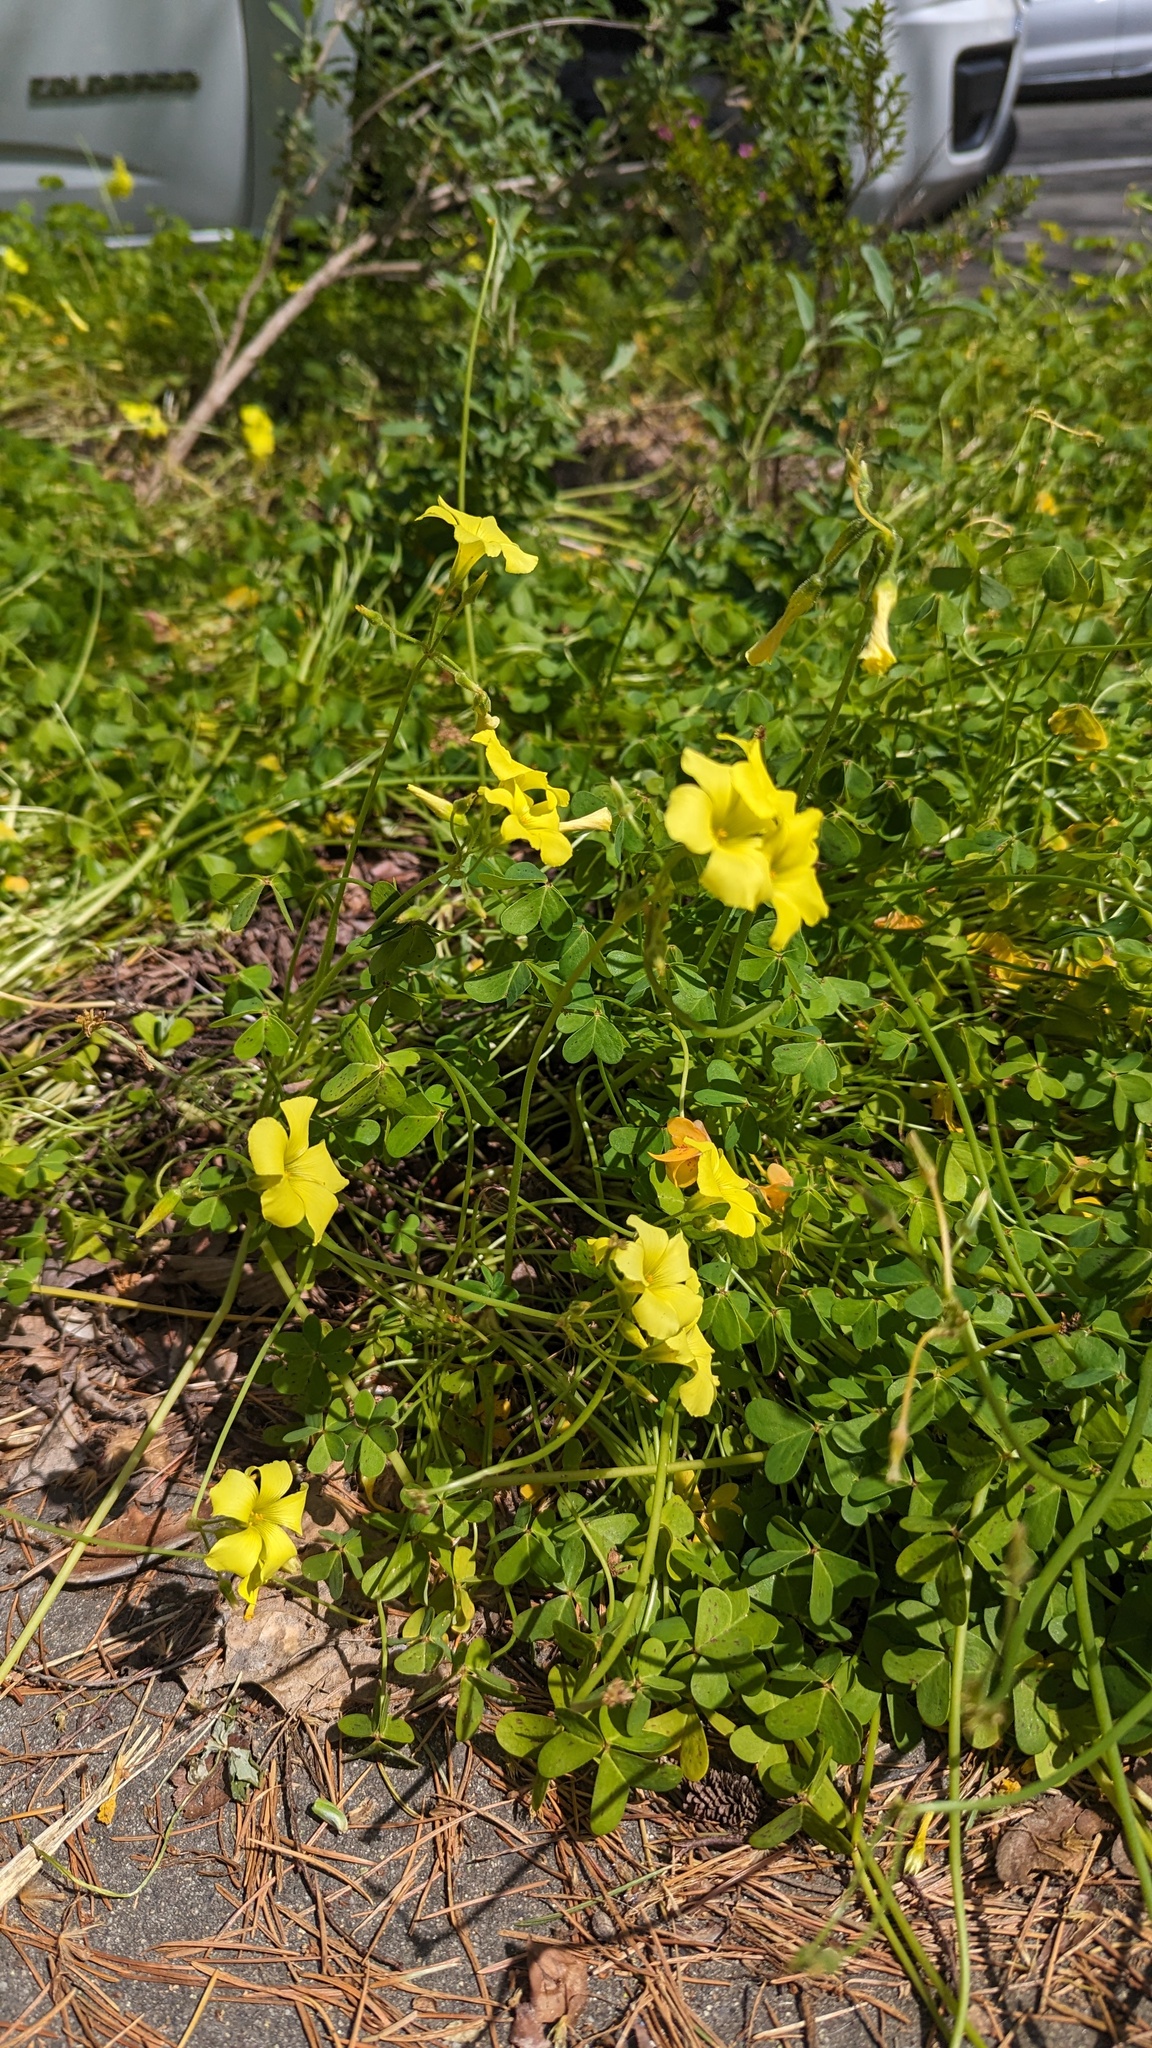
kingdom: Plantae
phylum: Tracheophyta
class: Magnoliopsida
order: Oxalidales
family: Oxalidaceae
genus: Oxalis
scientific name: Oxalis pes-caprae
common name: Bermuda-buttercup
